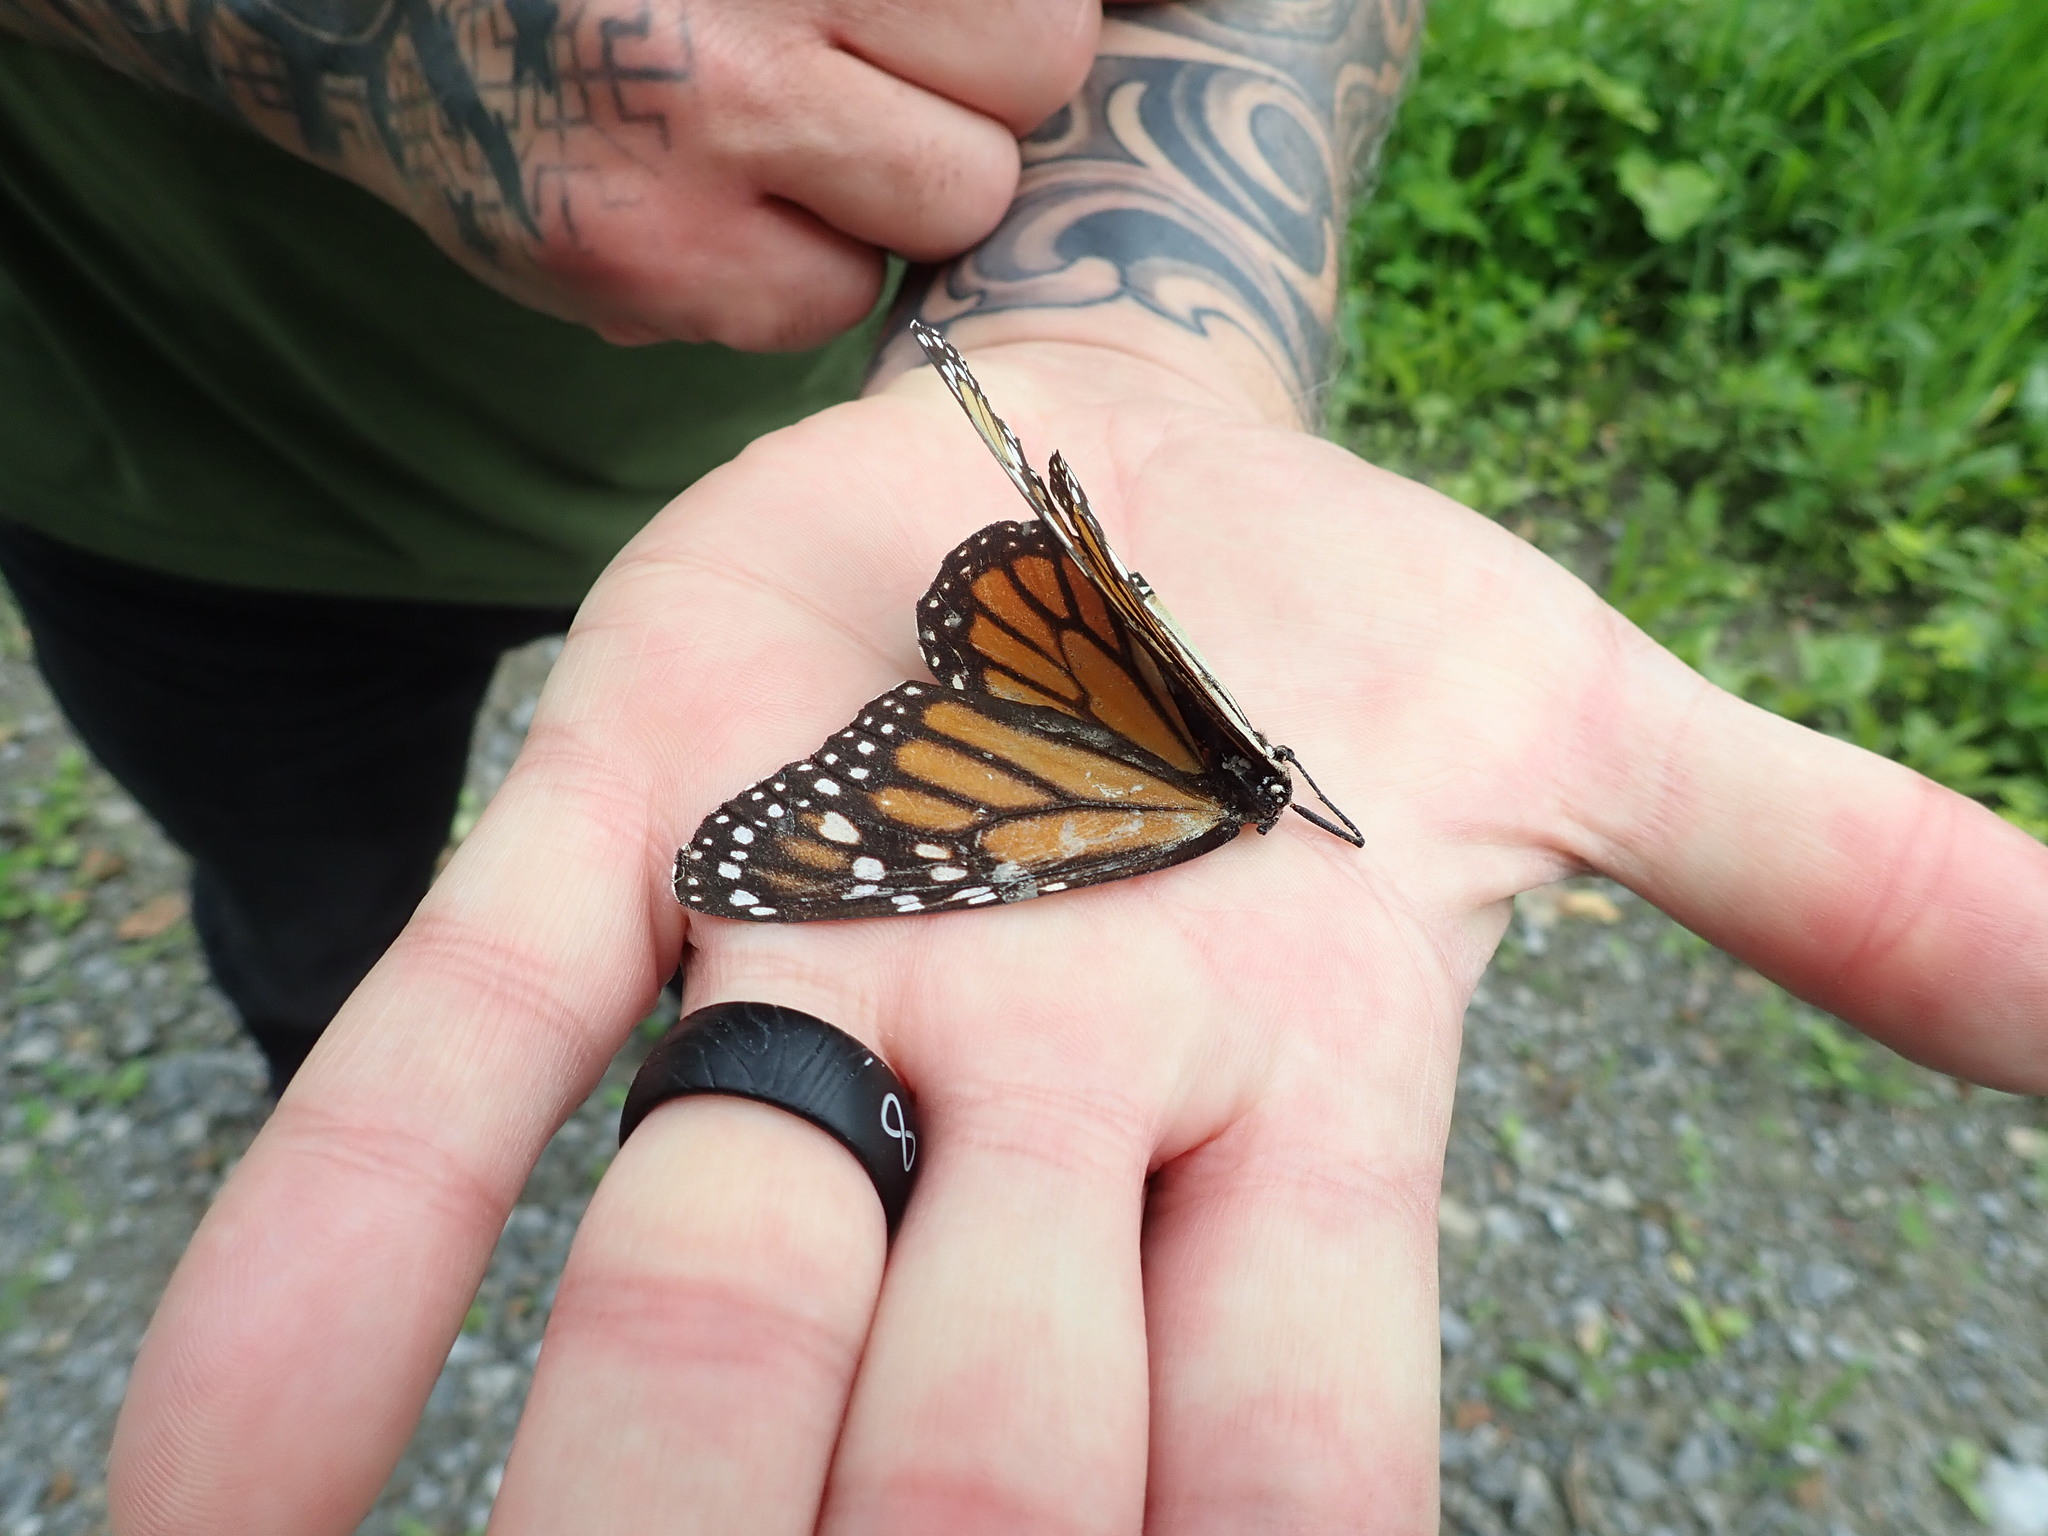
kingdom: Animalia
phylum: Arthropoda
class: Insecta
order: Lepidoptera
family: Nymphalidae
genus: Danaus
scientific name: Danaus plexippus
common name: Monarch
